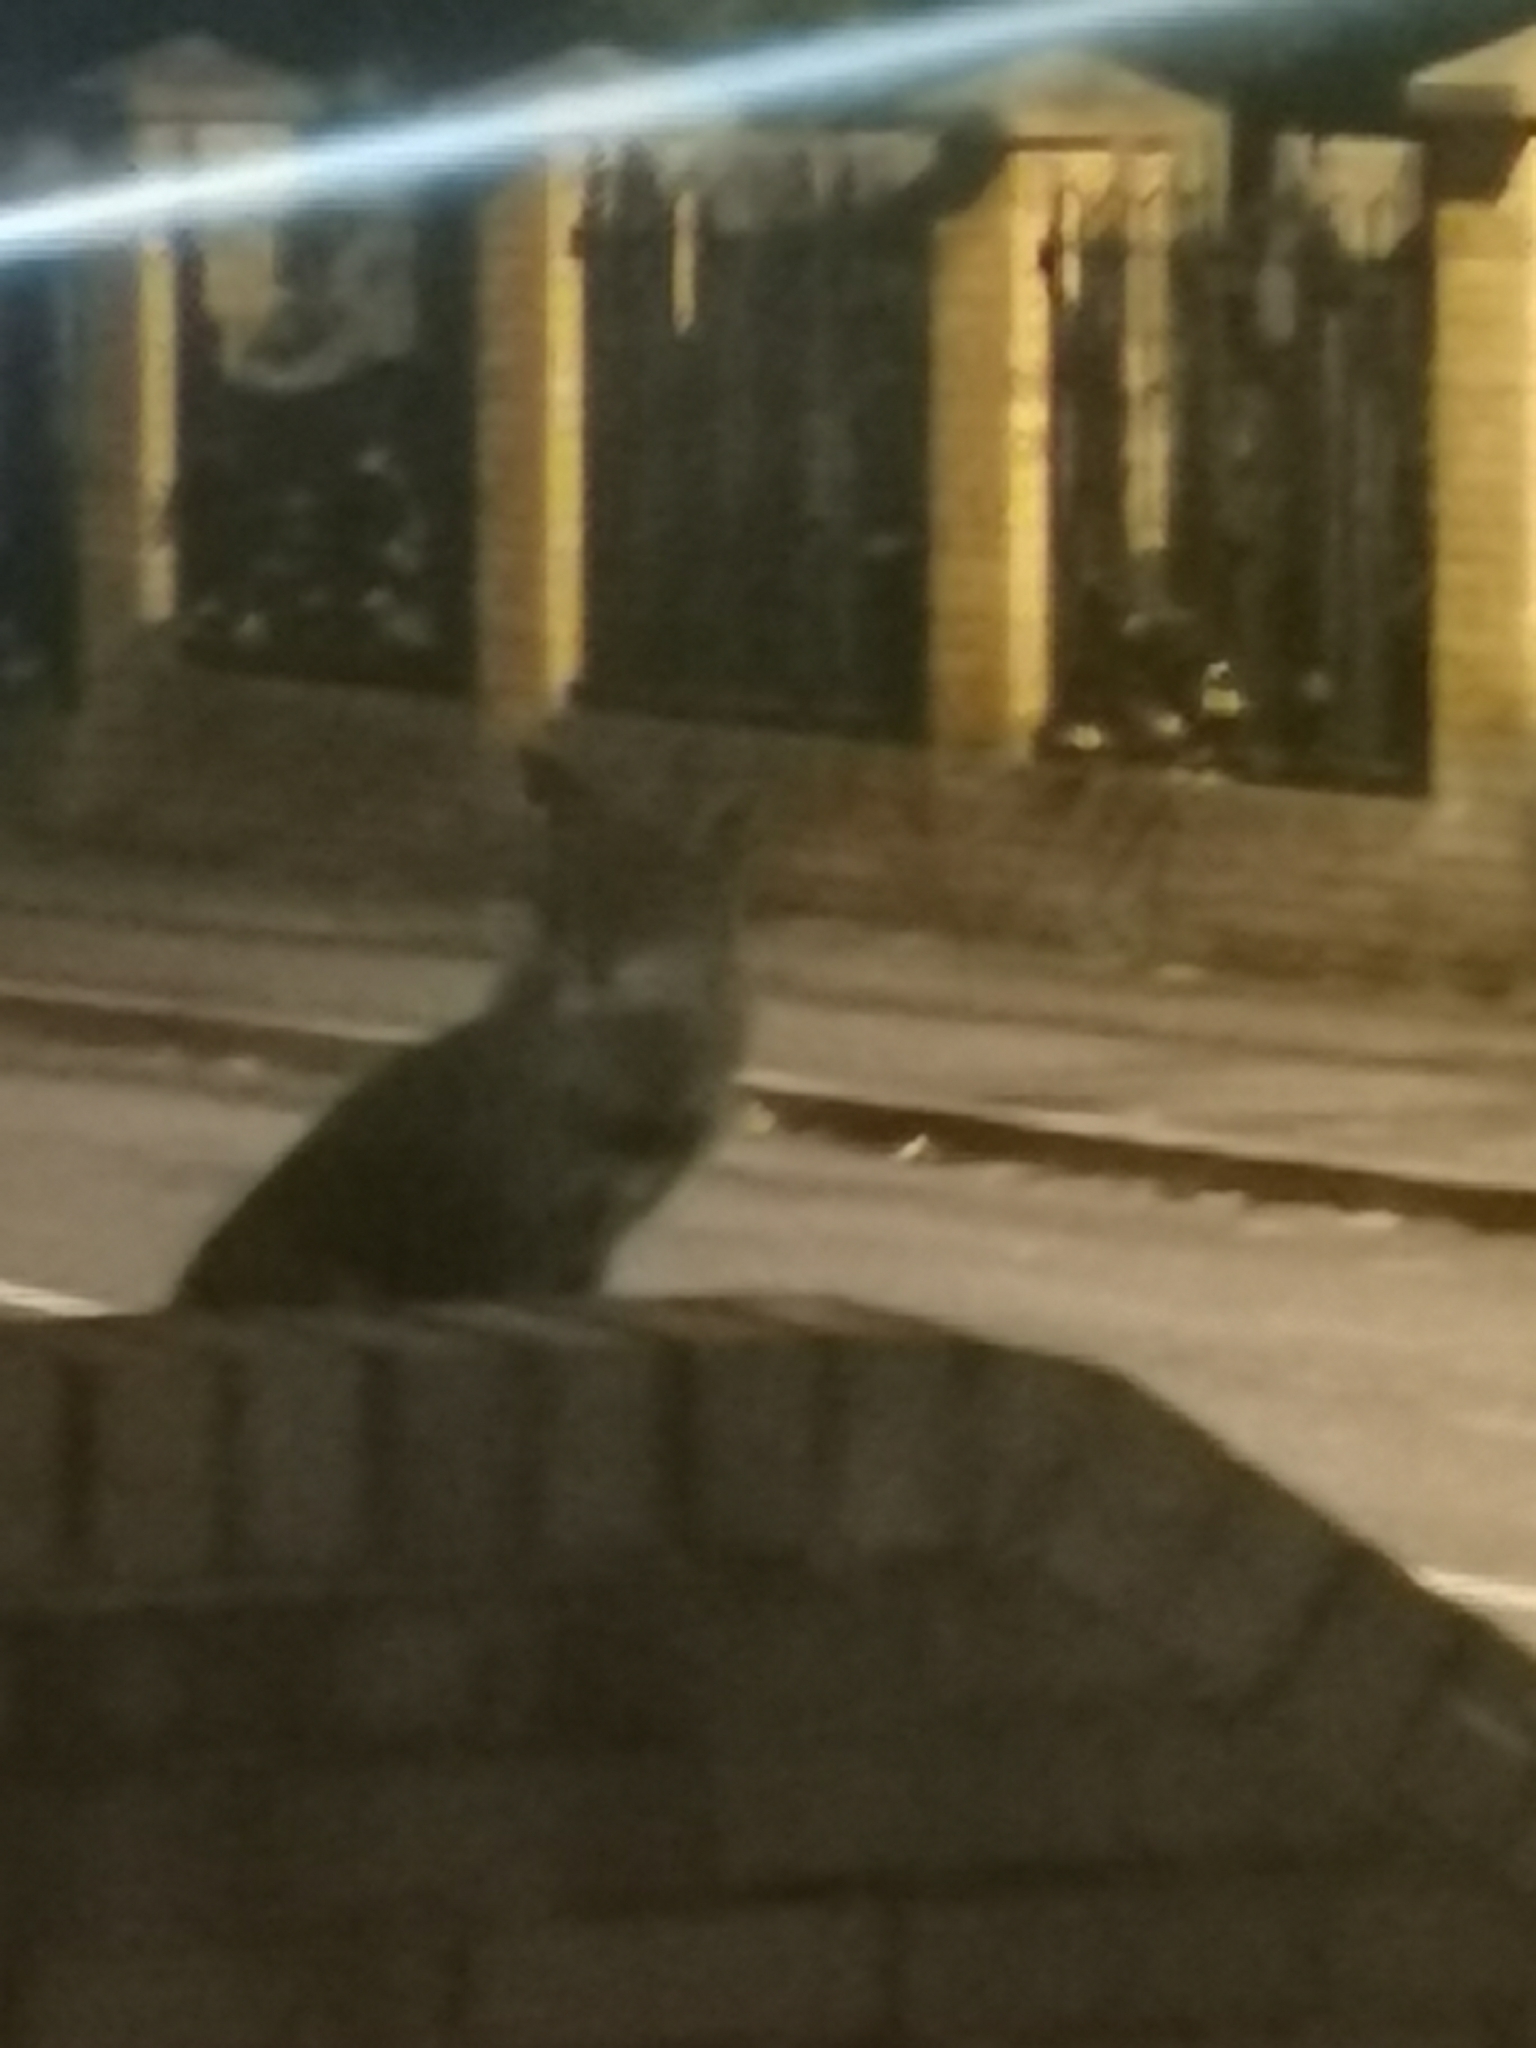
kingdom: Animalia
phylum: Chordata
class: Mammalia
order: Carnivora
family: Canidae
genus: Vulpes
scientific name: Vulpes vulpes
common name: Red fox
